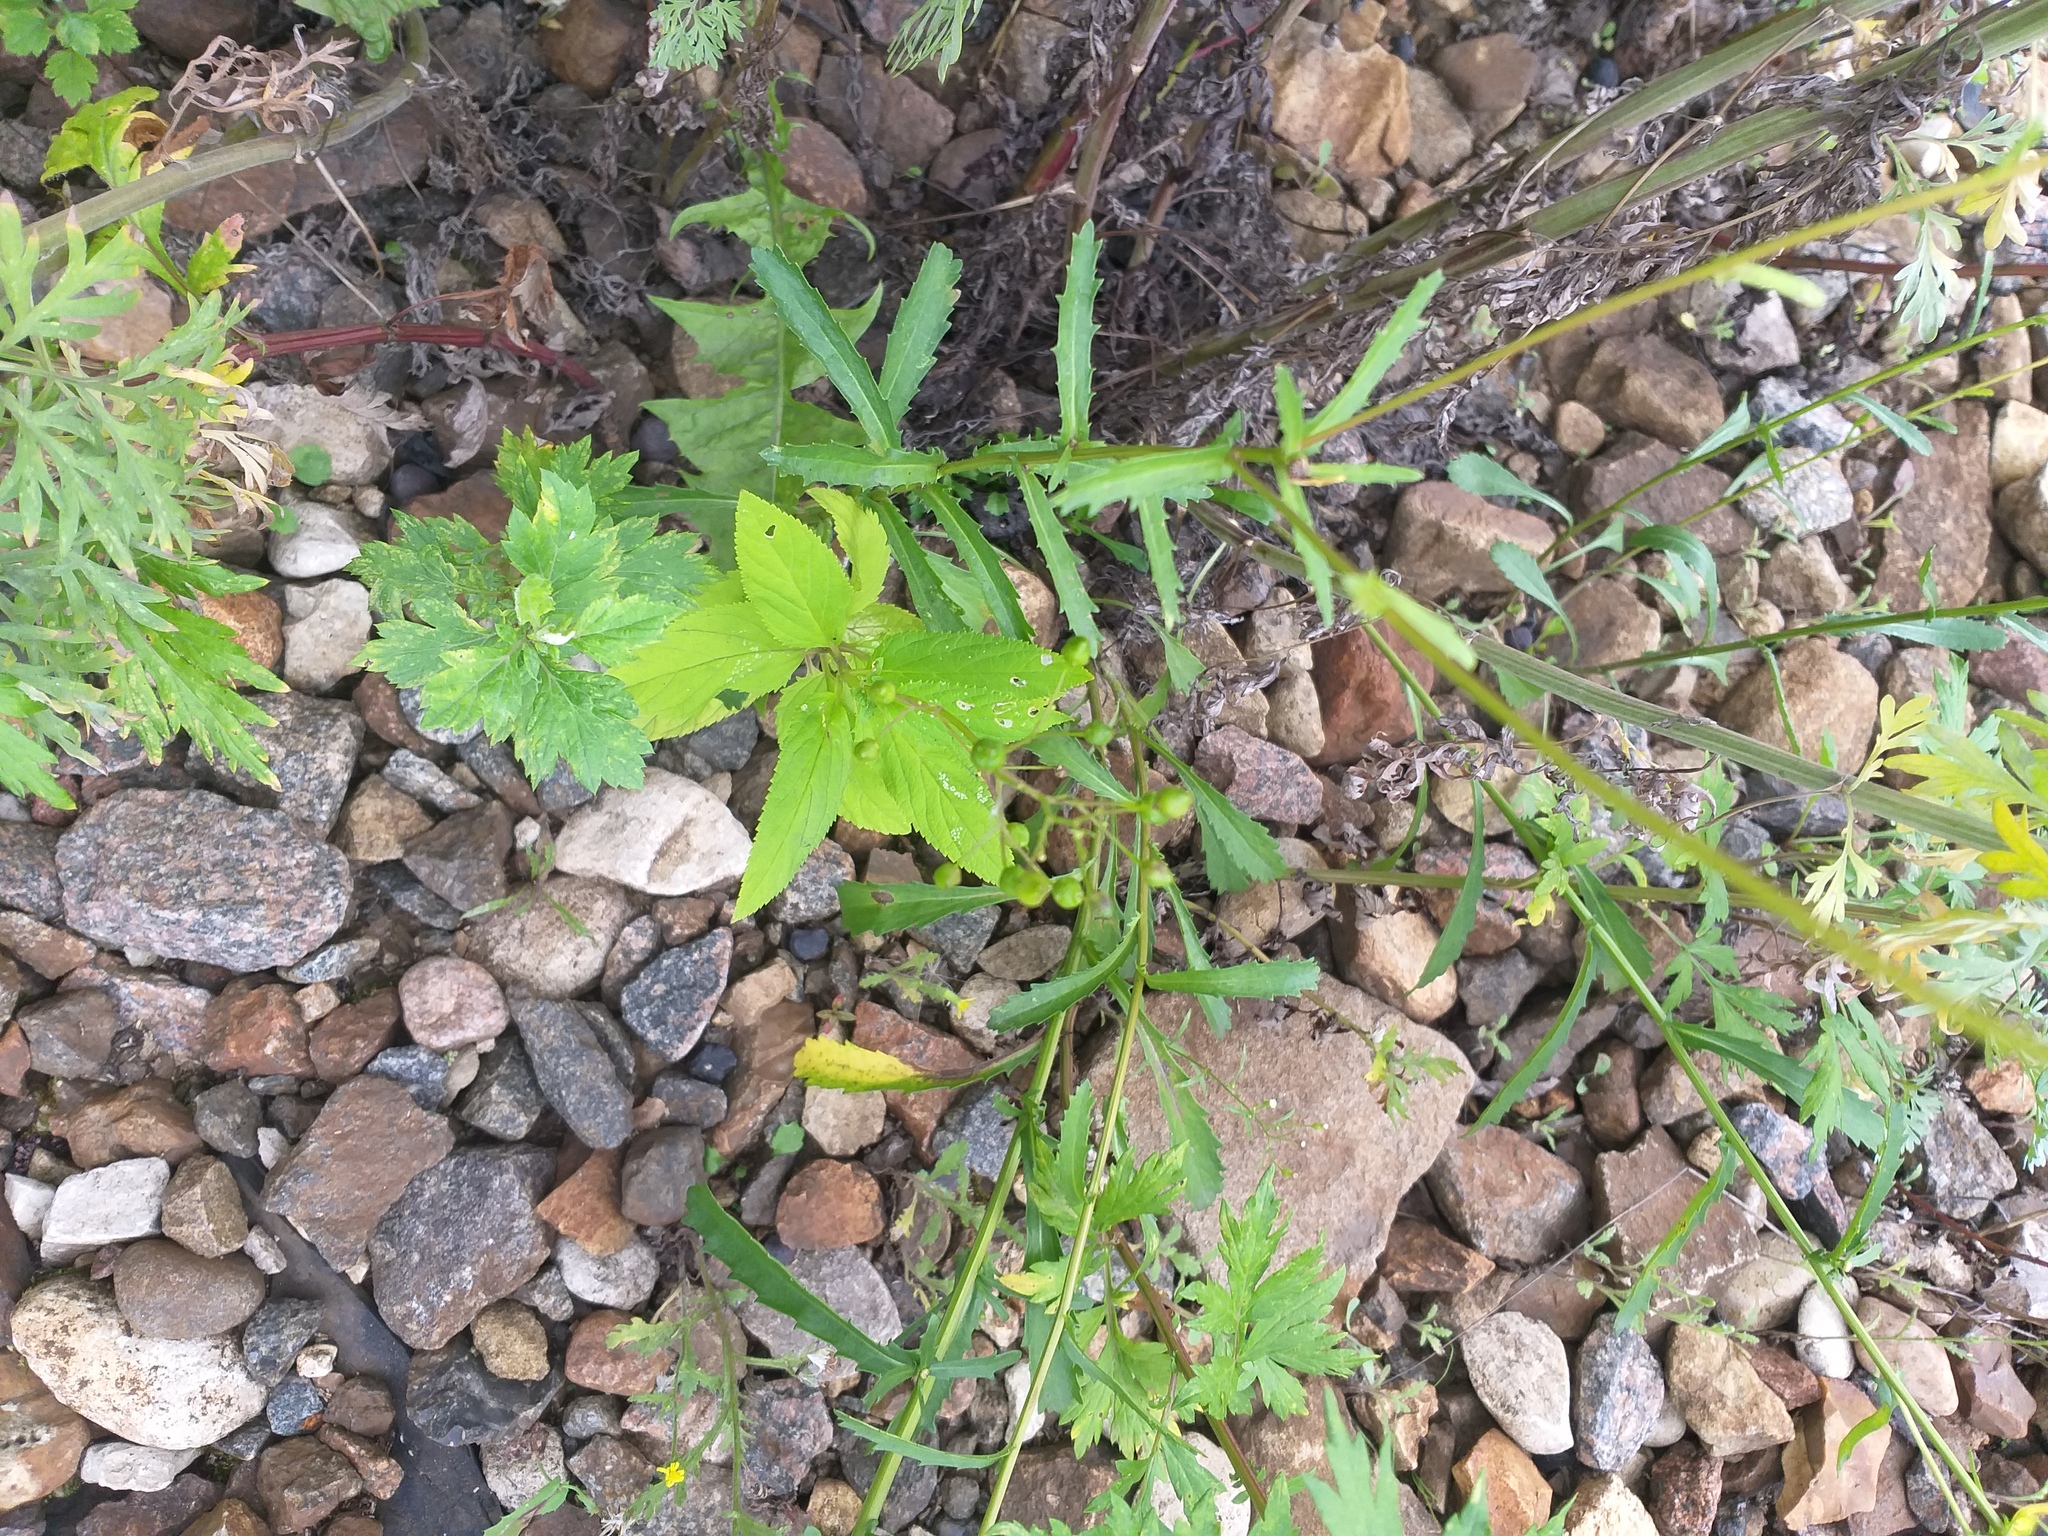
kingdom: Plantae
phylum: Tracheophyta
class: Magnoliopsida
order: Lamiales
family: Scrophulariaceae
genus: Scrophularia
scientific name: Scrophularia nodosa
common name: Common figwort
